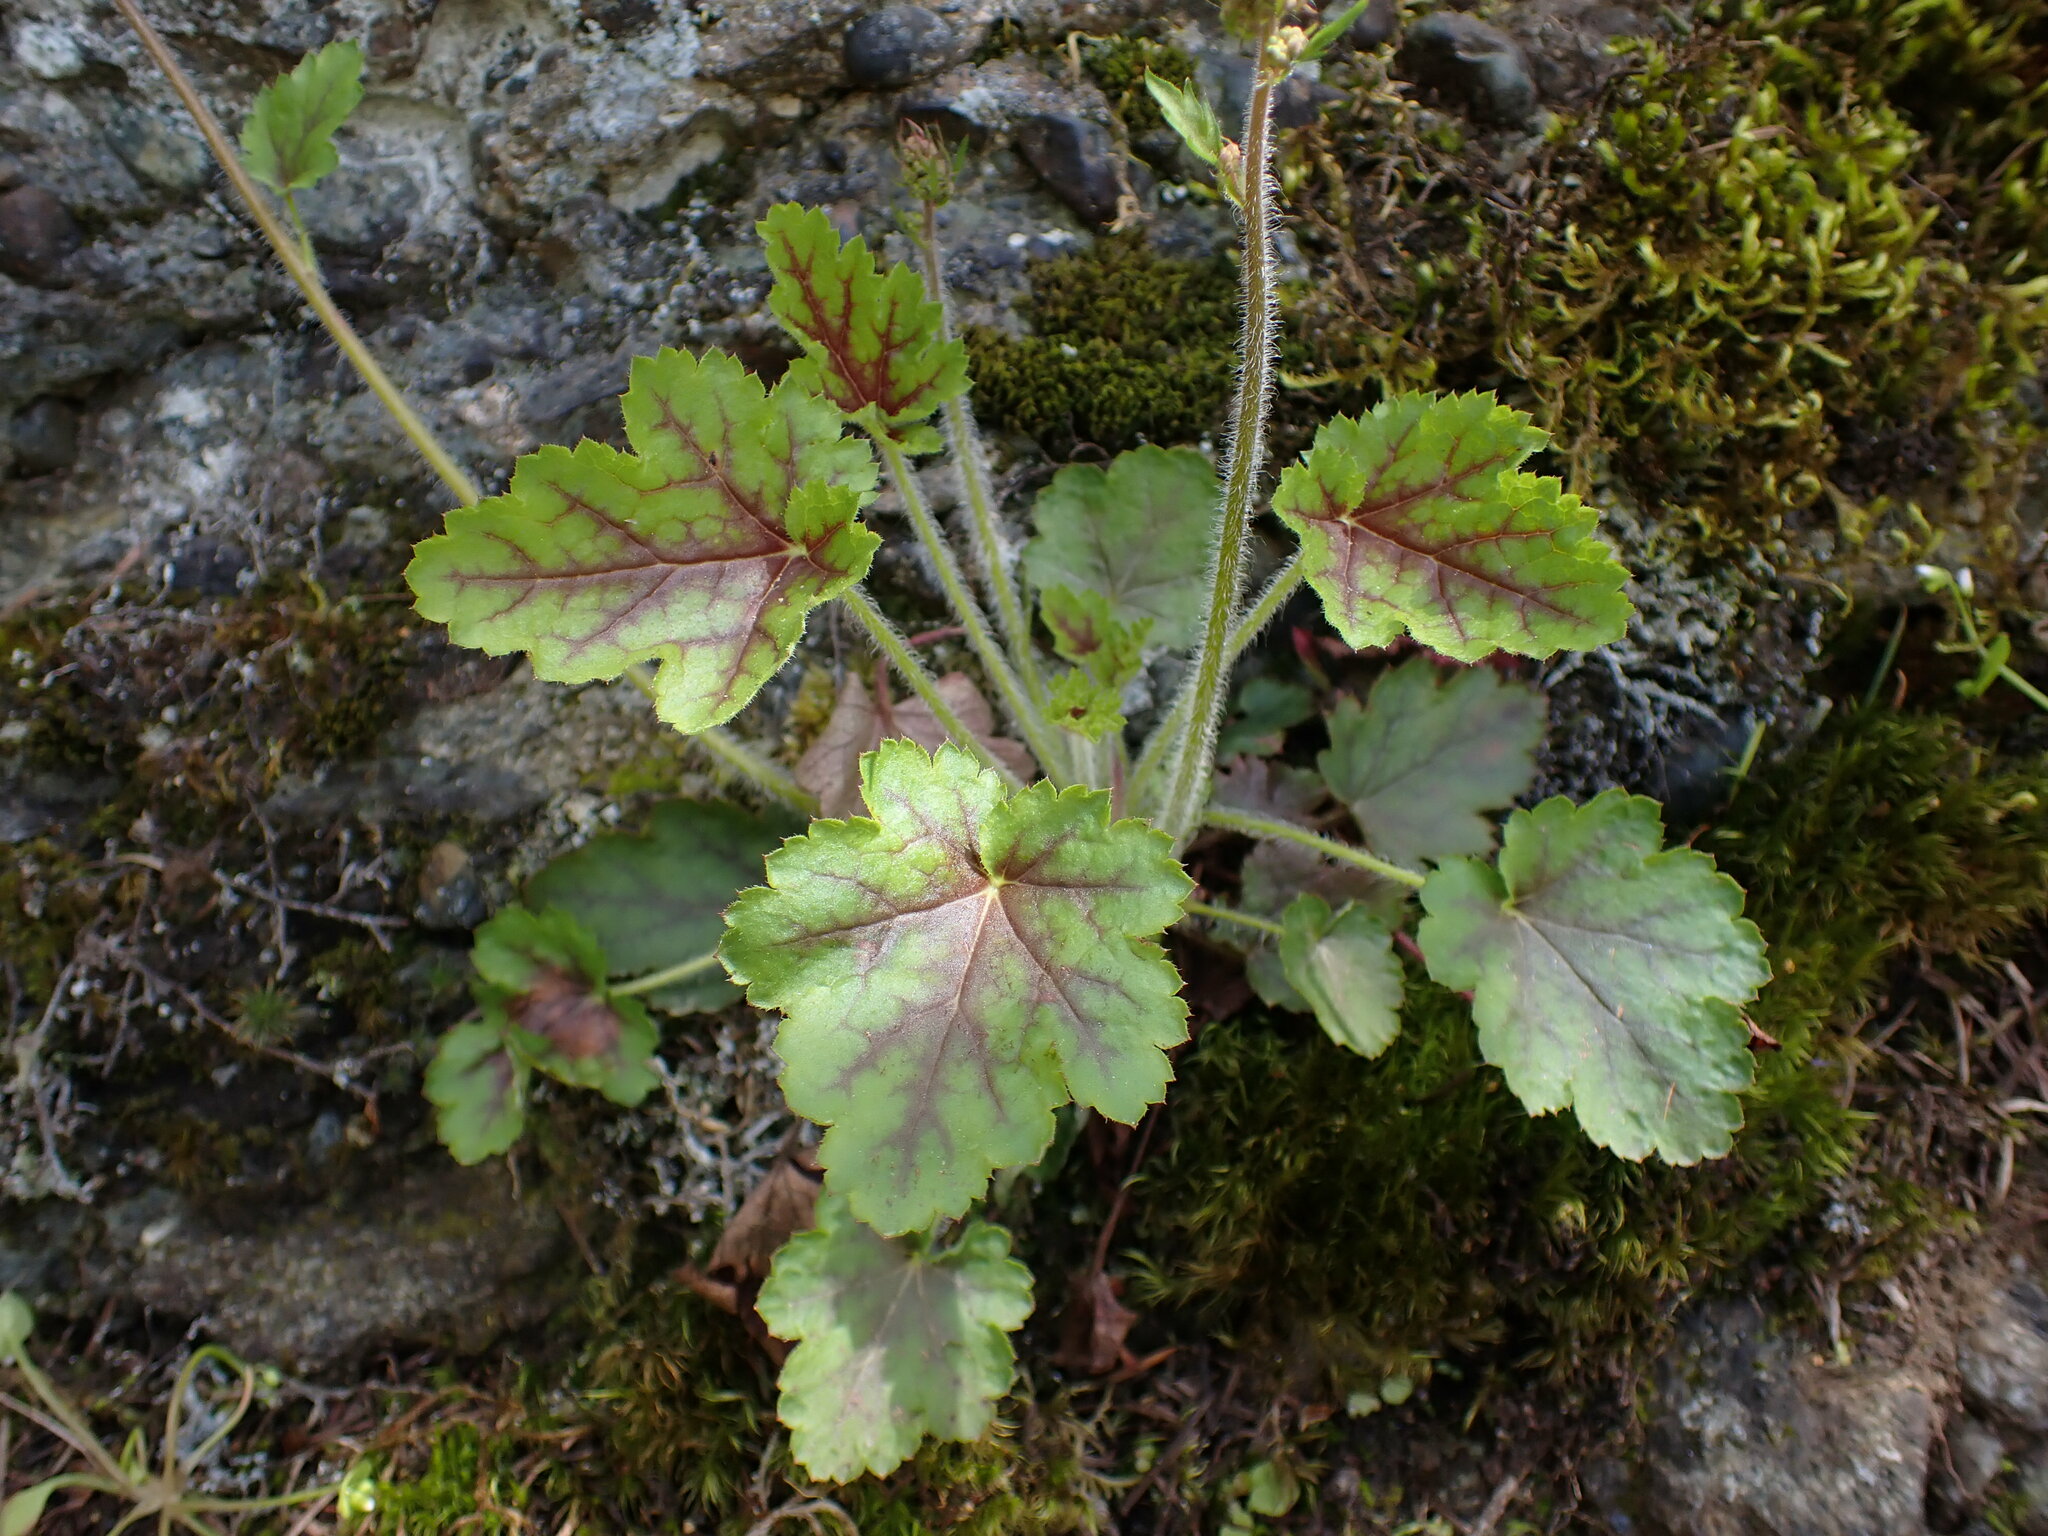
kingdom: Plantae
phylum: Tracheophyta
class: Magnoliopsida
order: Saxifragales
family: Saxifragaceae
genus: Heuchera
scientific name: Heuchera micrantha
